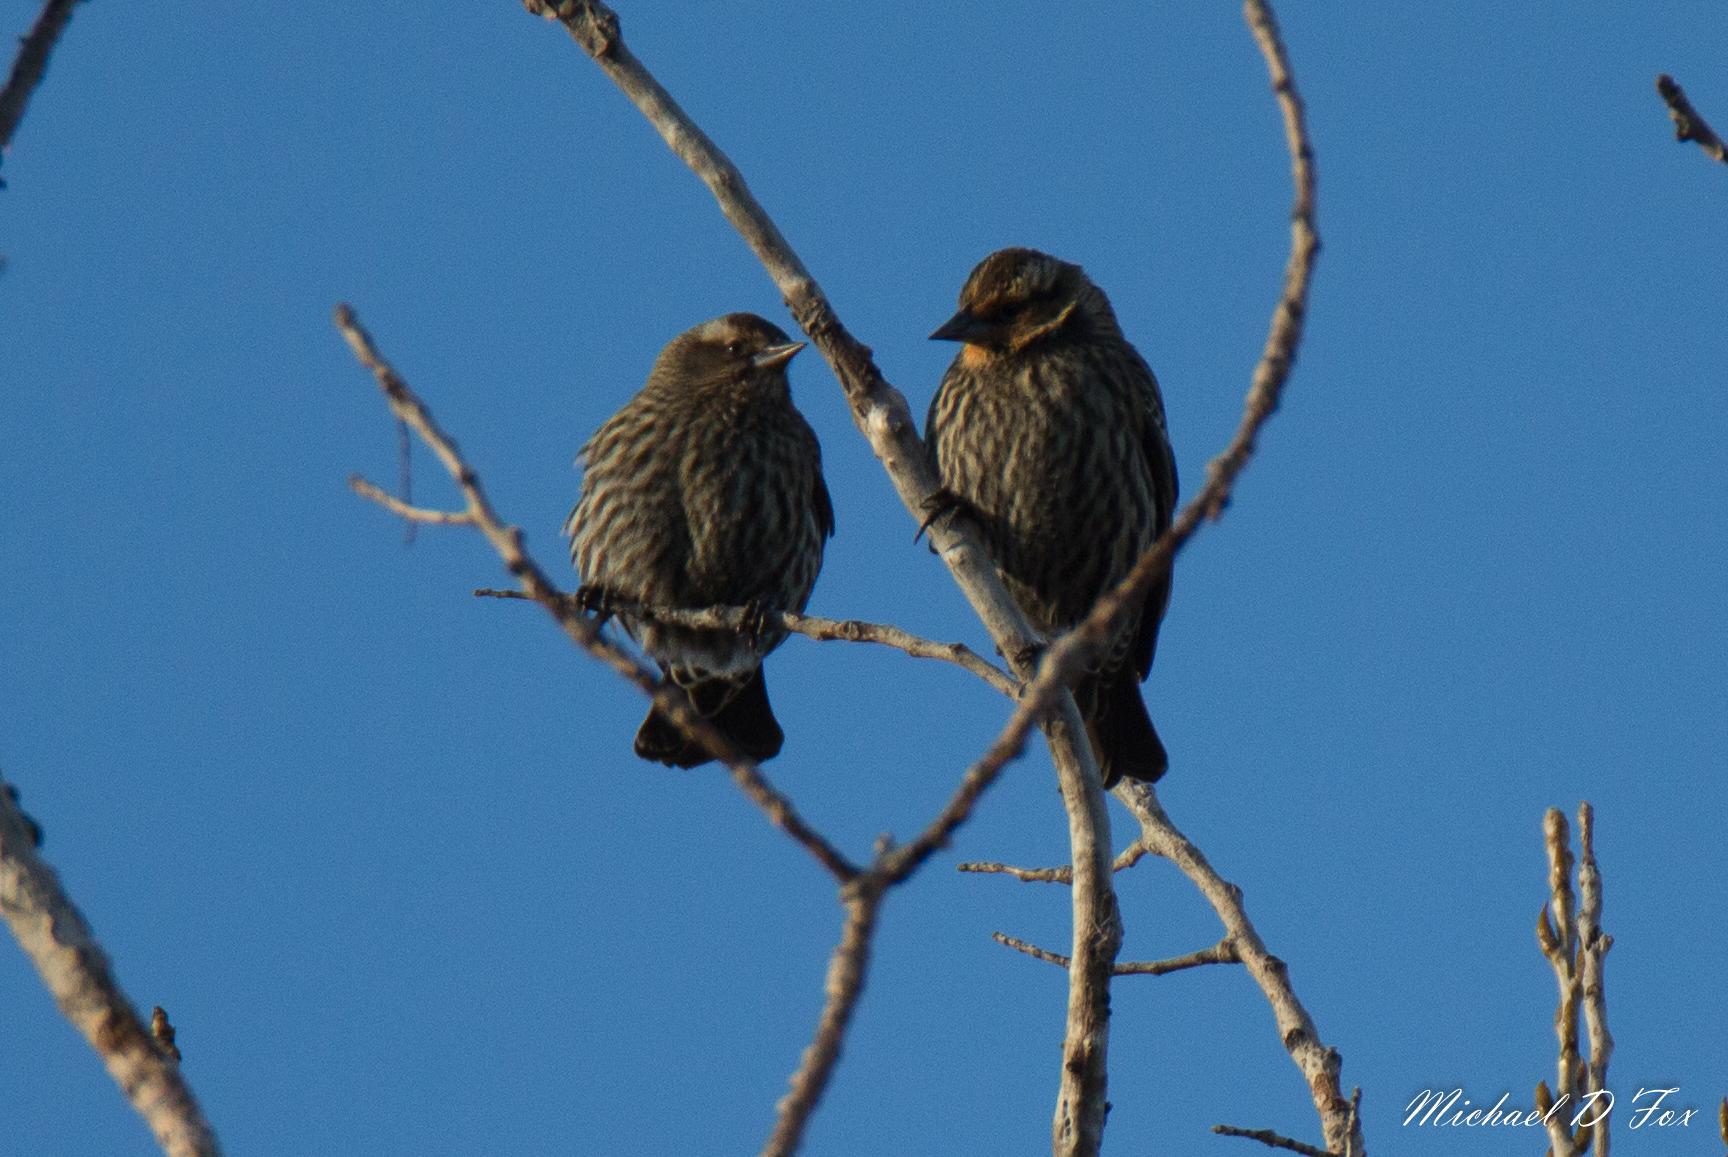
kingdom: Animalia
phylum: Chordata
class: Aves
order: Passeriformes
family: Icteridae
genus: Agelaius
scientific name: Agelaius phoeniceus
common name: Red-winged blackbird
